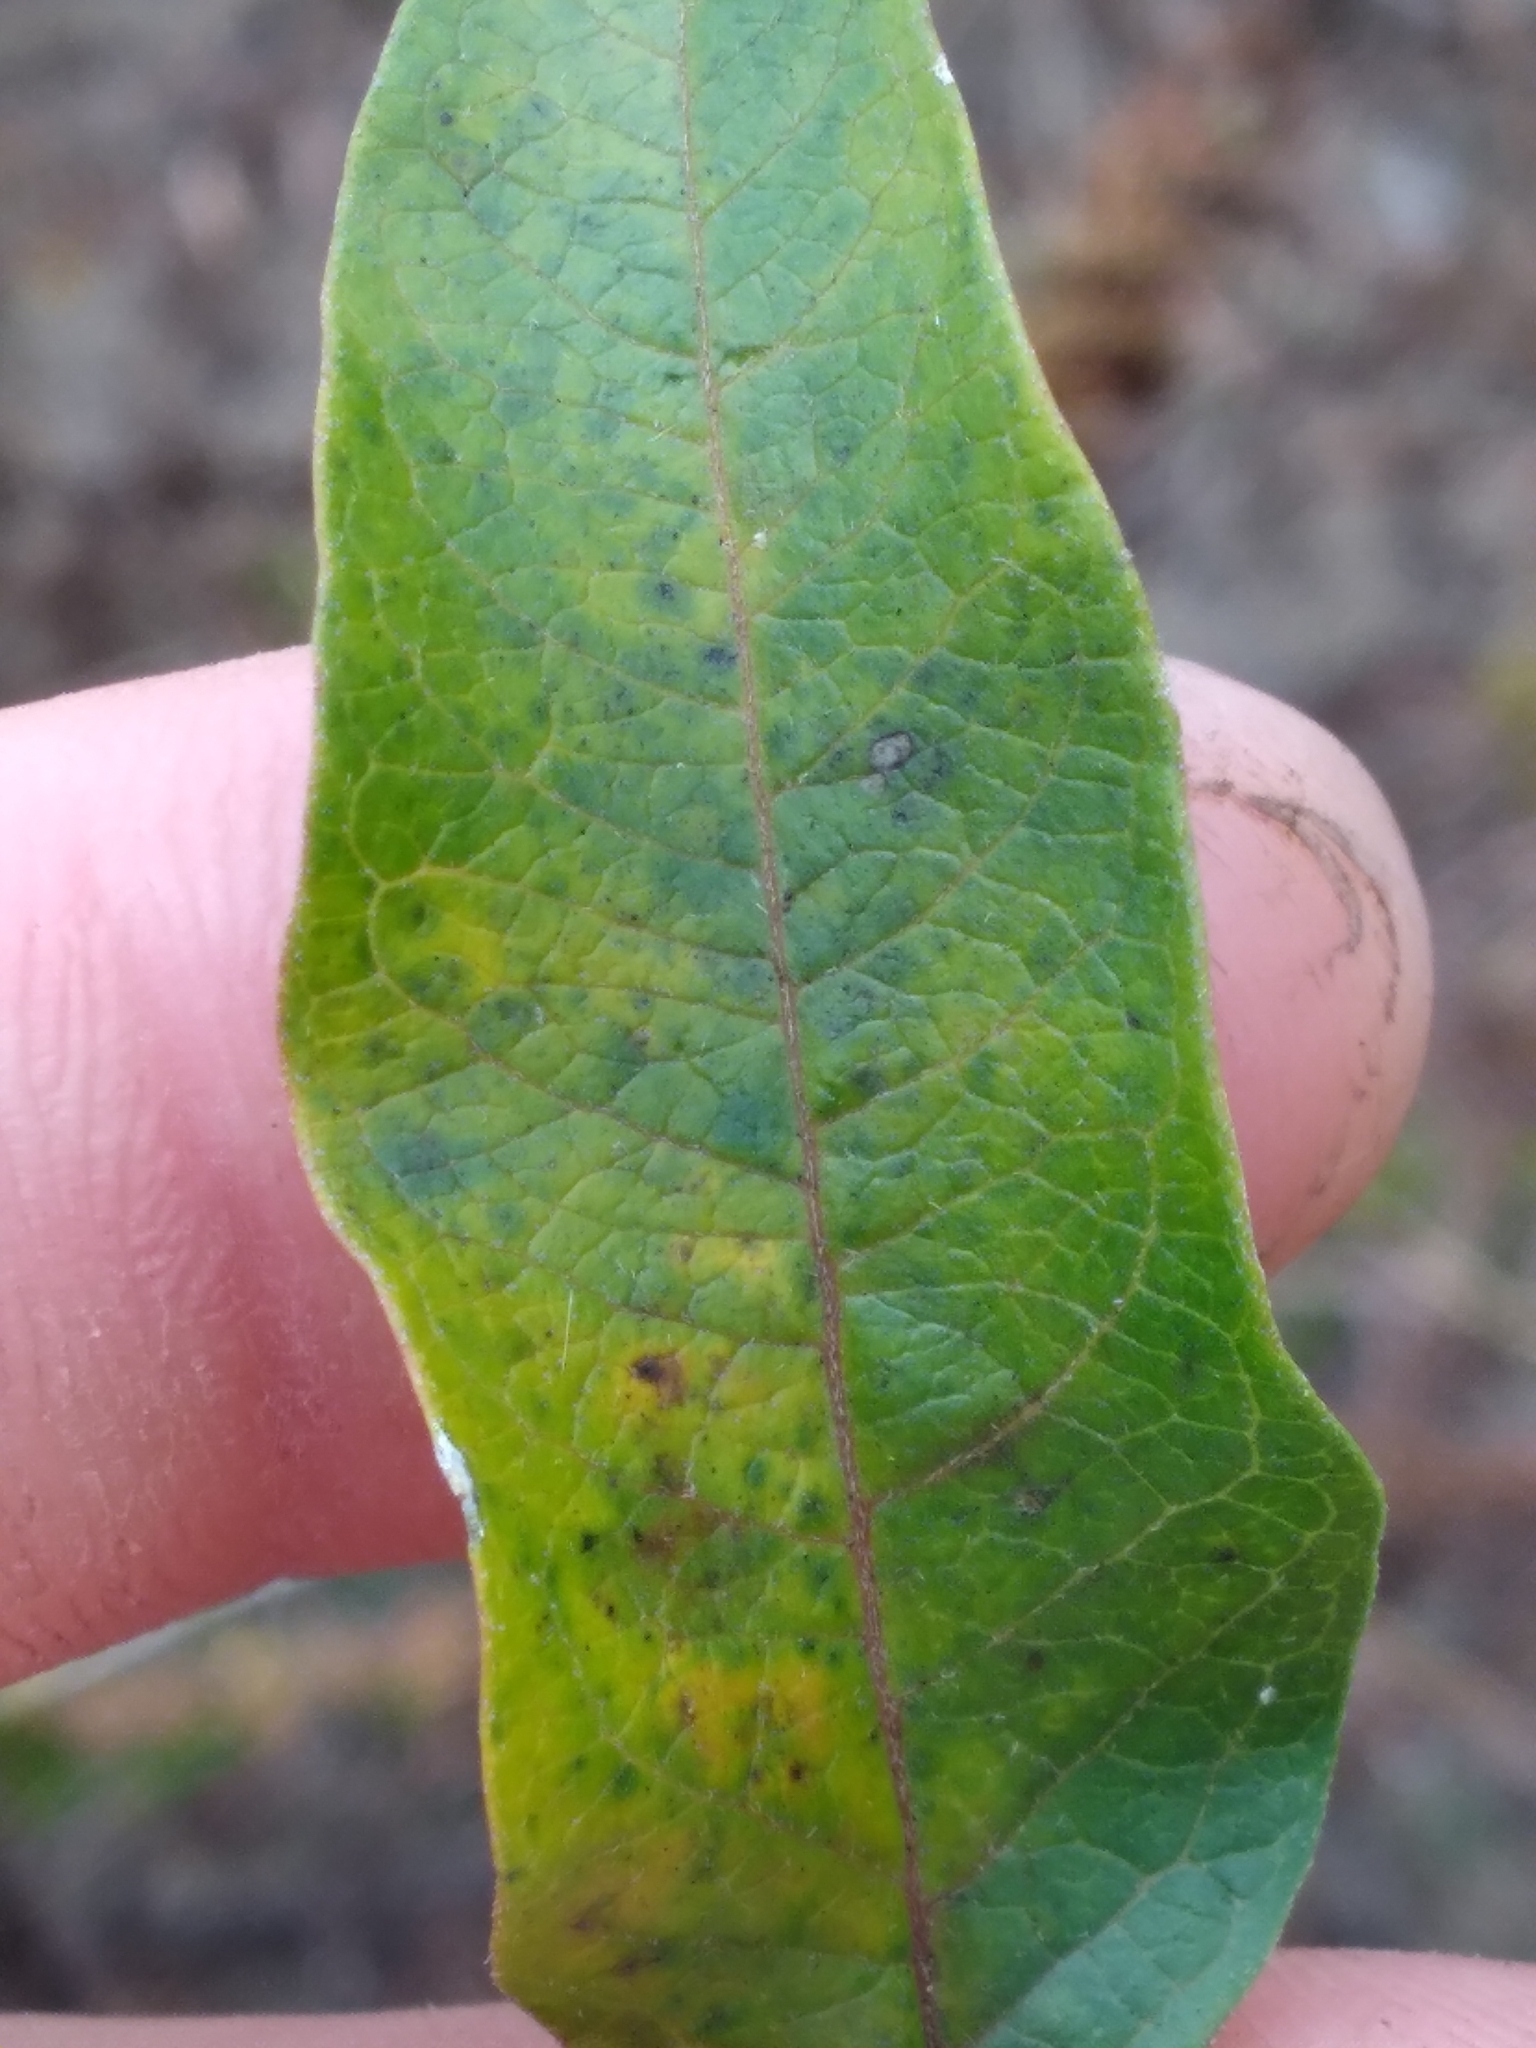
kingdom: Plantae
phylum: Tracheophyta
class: Magnoliopsida
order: Gentianales
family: Apocynaceae
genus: Asclepias
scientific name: Asclepias tomentosa
